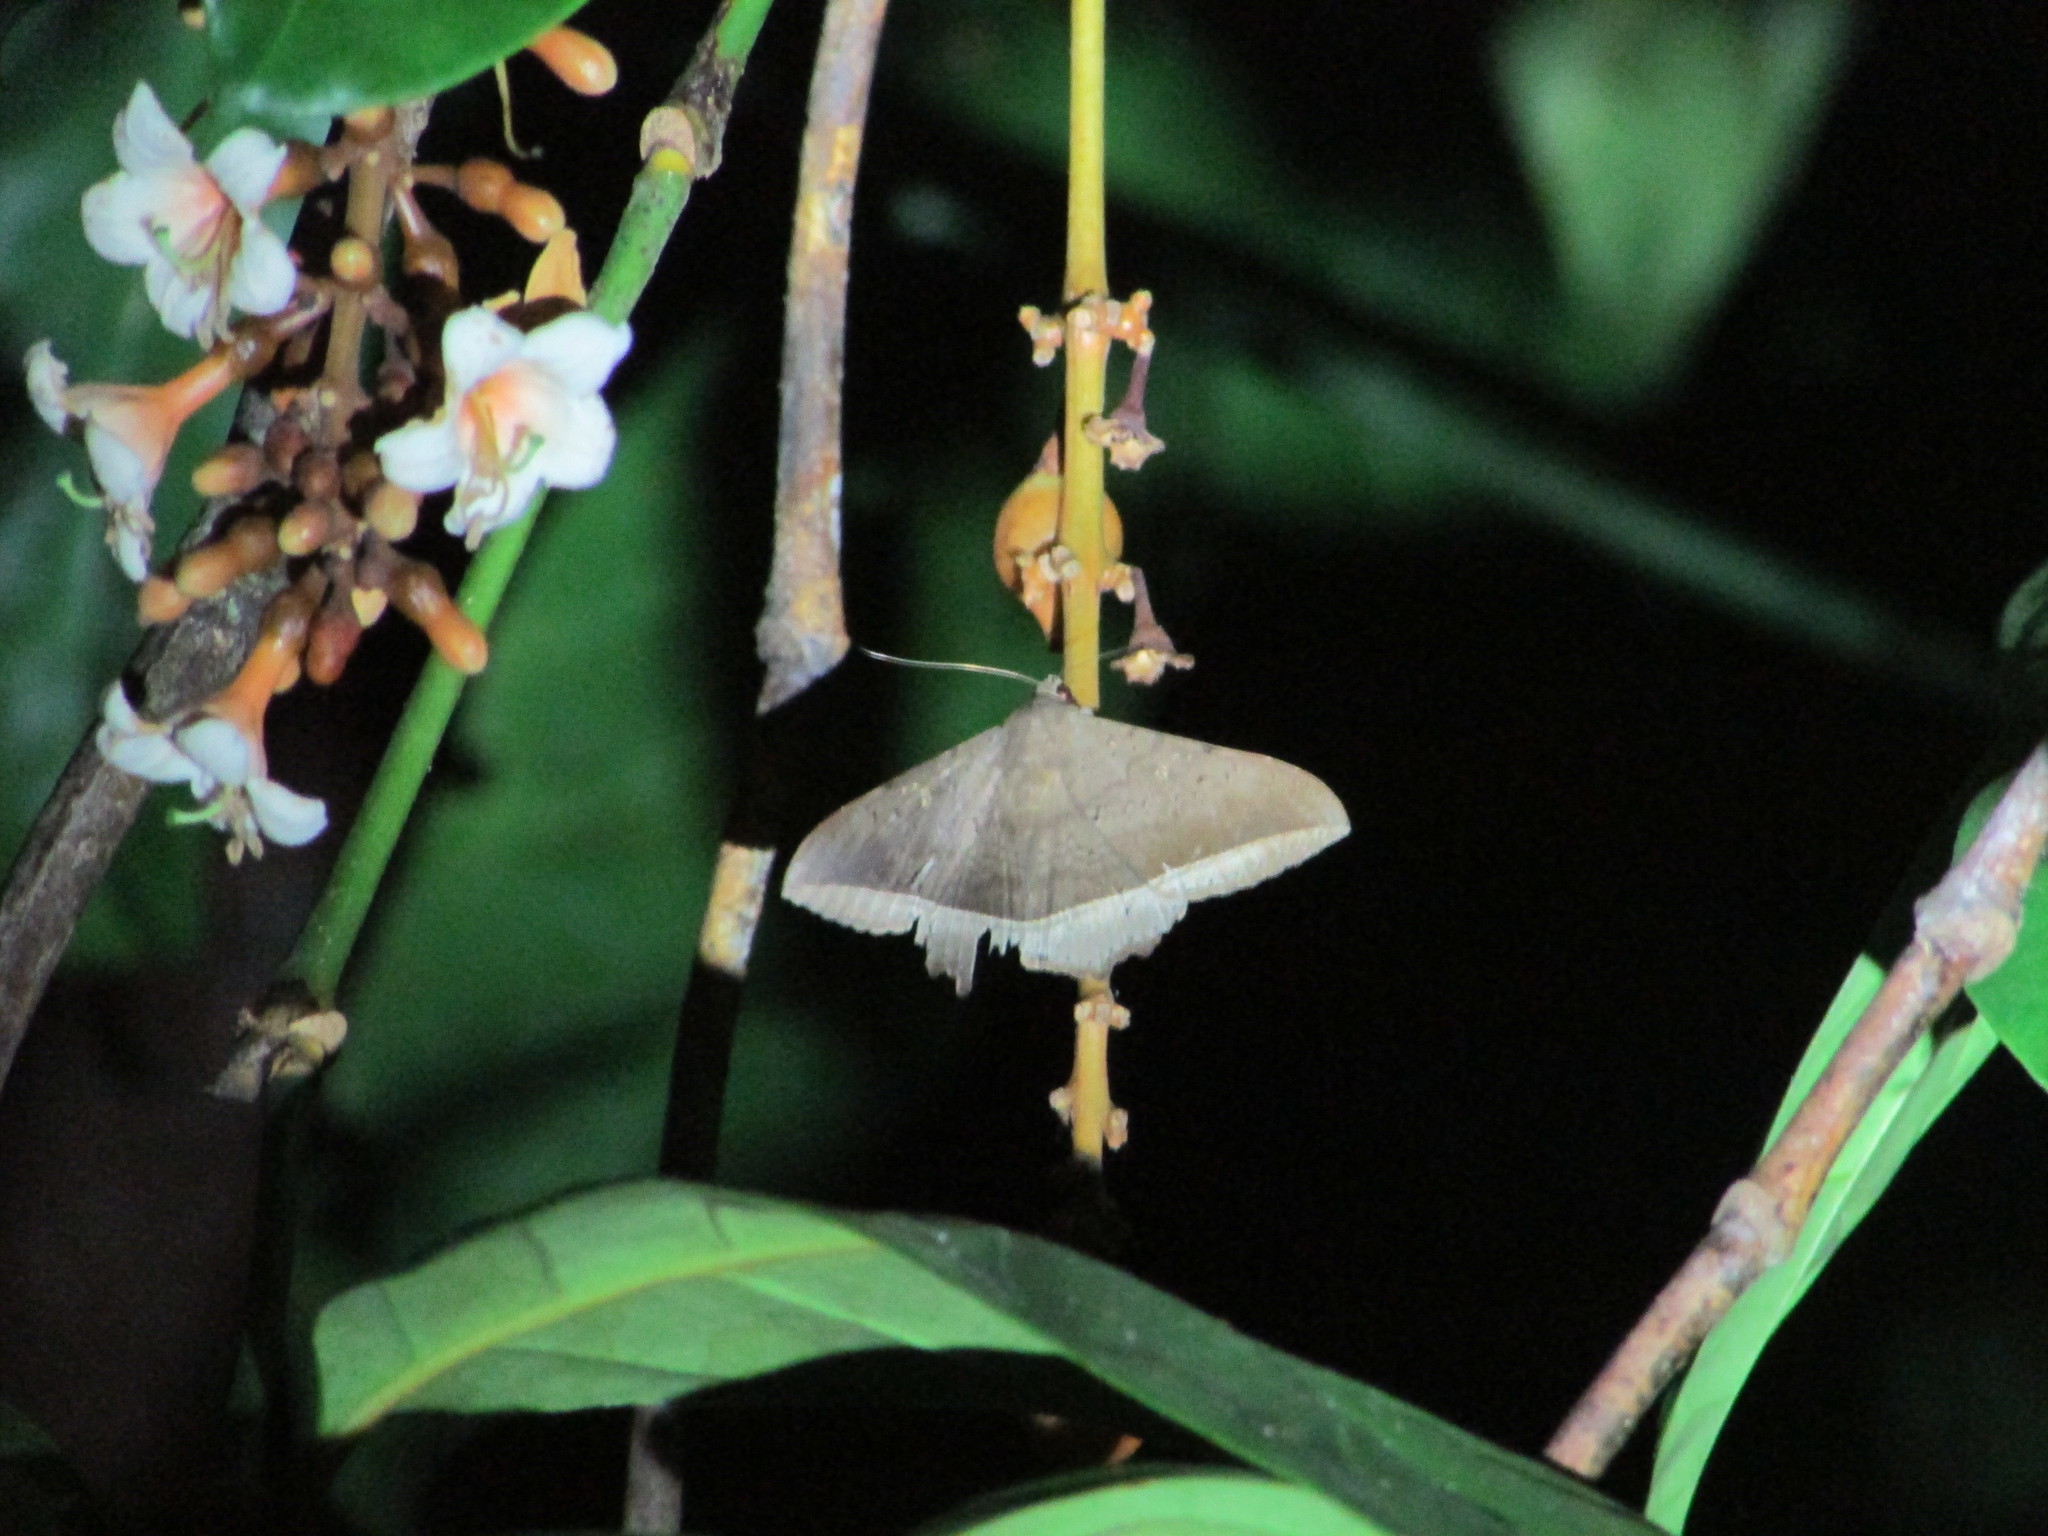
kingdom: Animalia
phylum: Arthropoda
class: Insecta
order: Lepidoptera
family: Erebidae
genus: Hulodes
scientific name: Hulodes caranea
